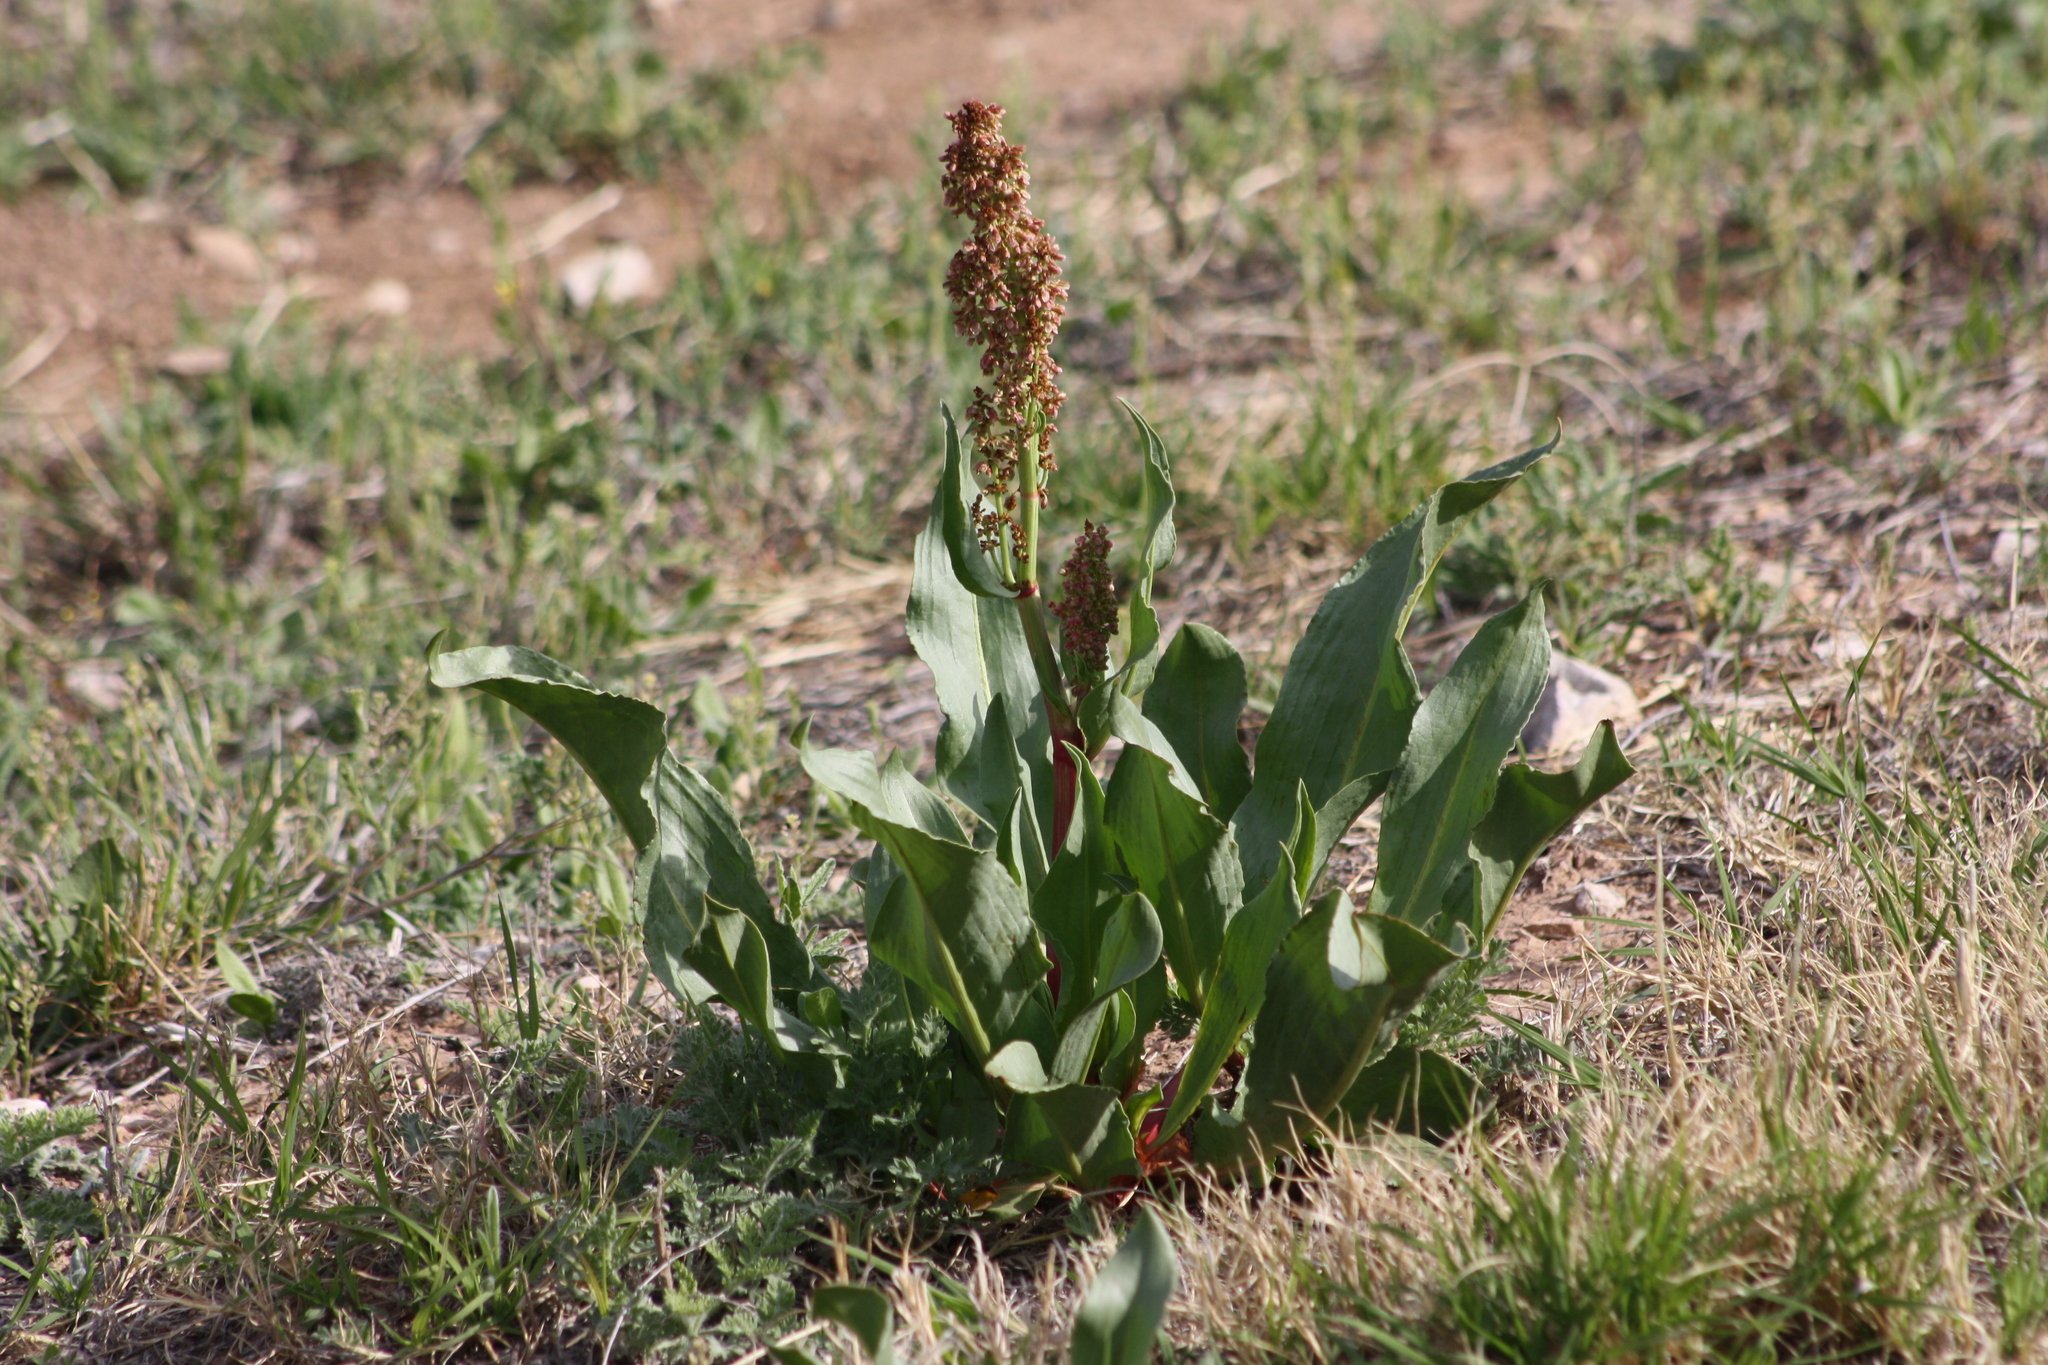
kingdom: Plantae
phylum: Tracheophyta
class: Magnoliopsida
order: Caryophyllales
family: Polygonaceae
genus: Rumex
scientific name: Rumex hymenosepalus
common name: Ganagra
